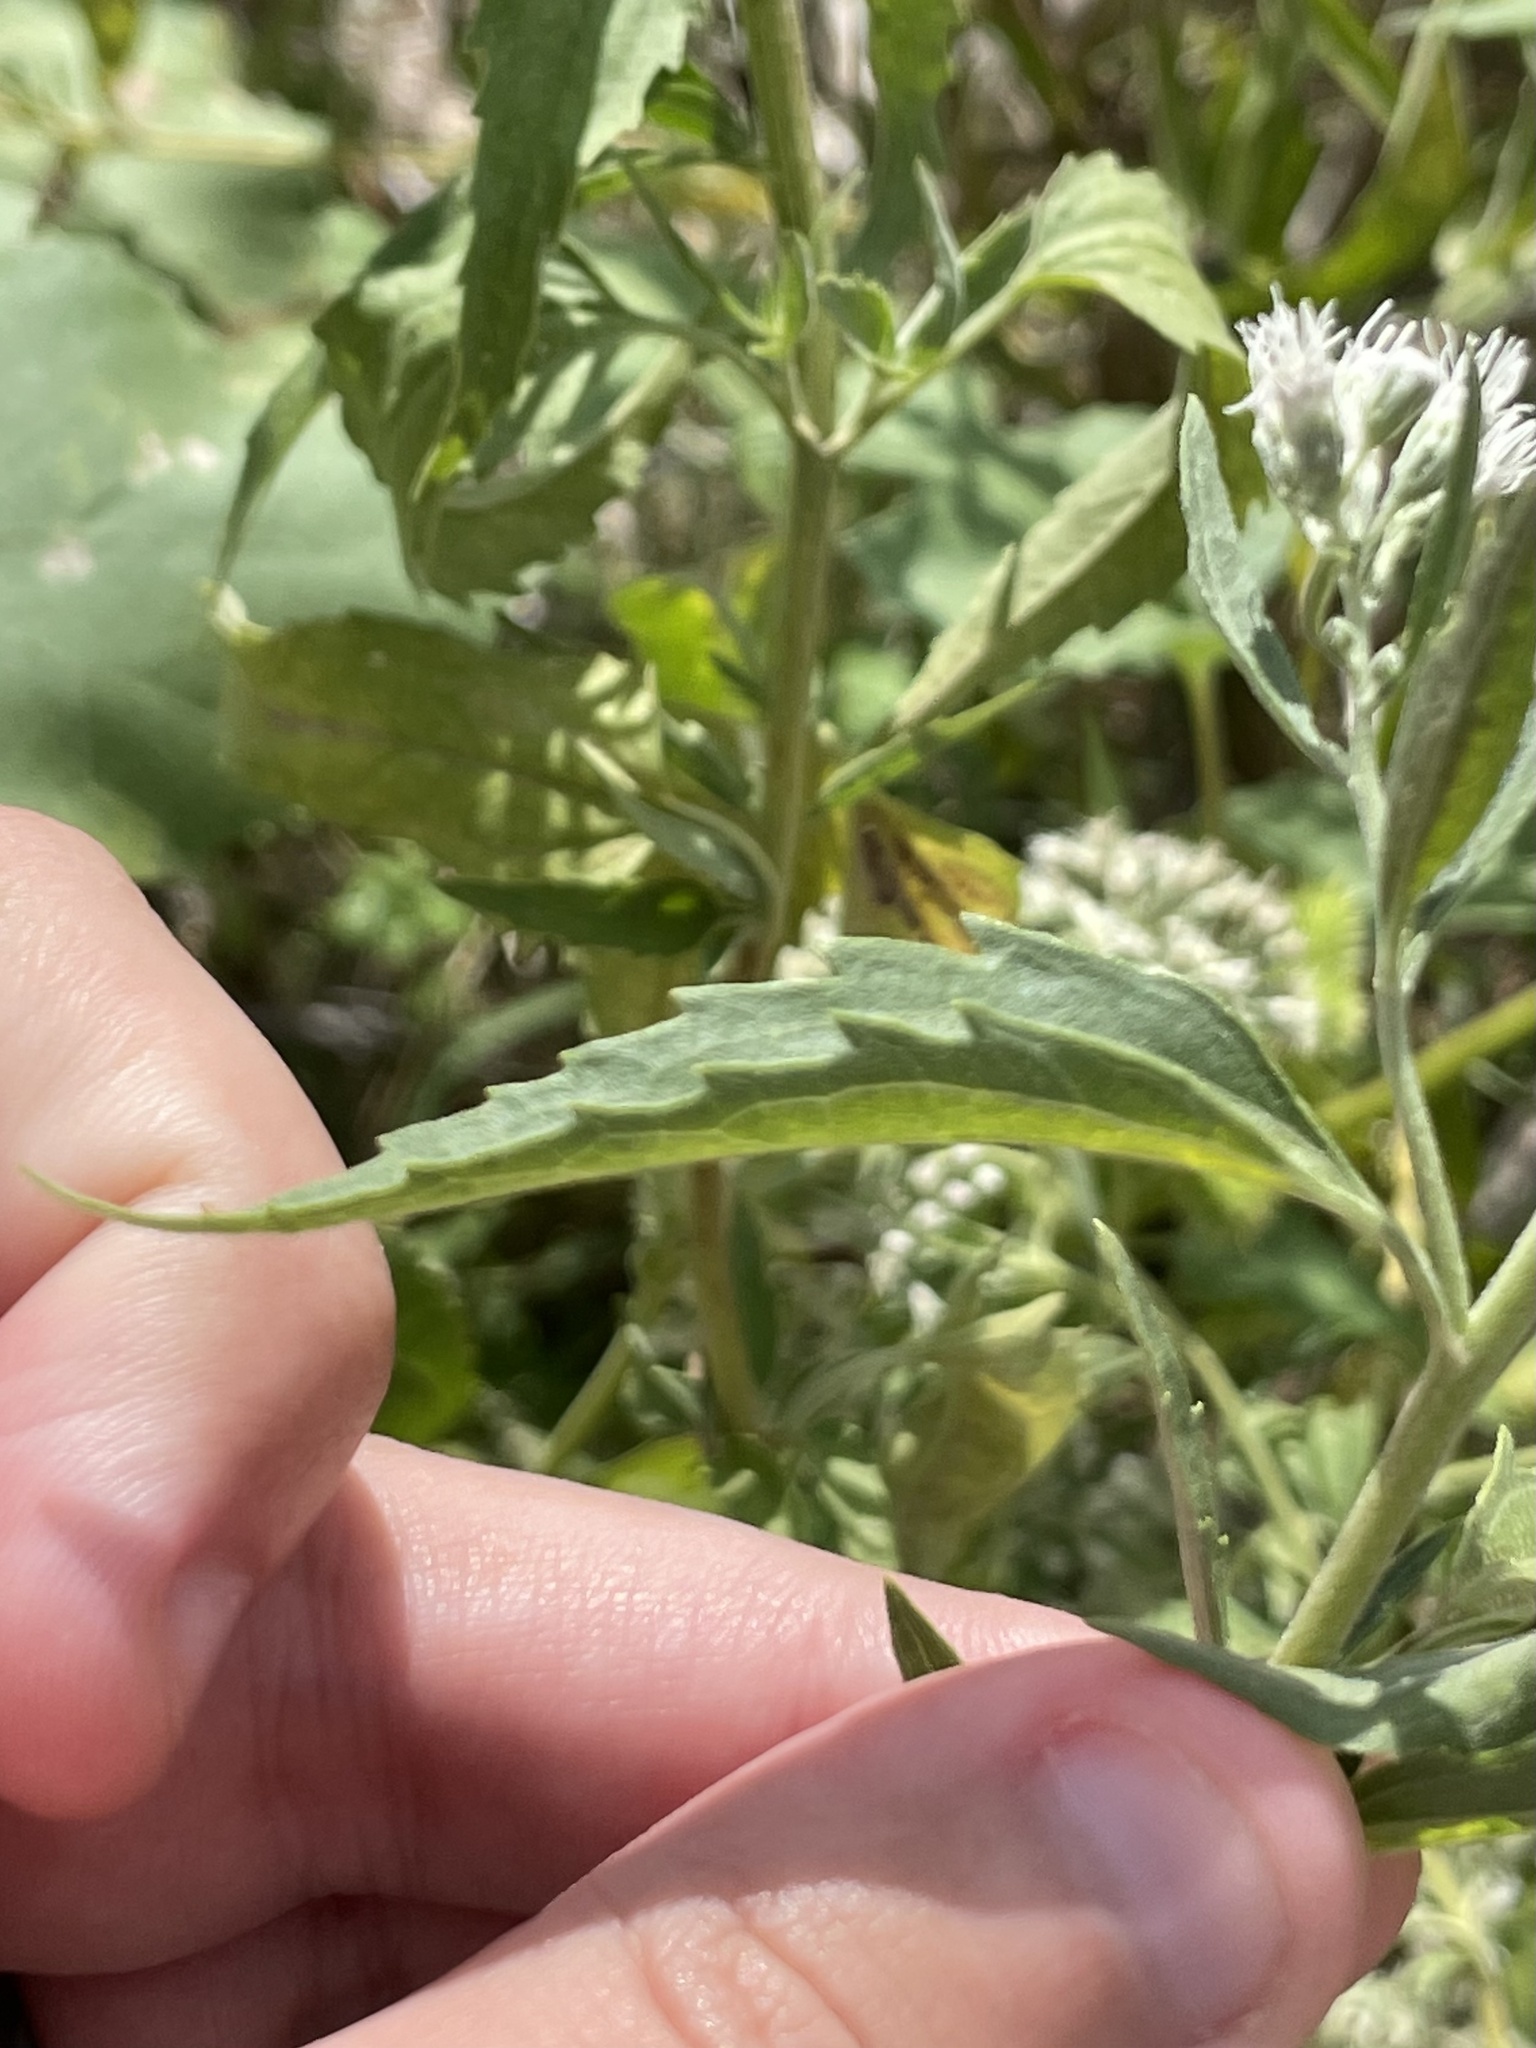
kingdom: Plantae
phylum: Tracheophyta
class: Magnoliopsida
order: Asterales
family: Asteraceae
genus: Eupatorium
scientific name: Eupatorium serotinum
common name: Late boneset
